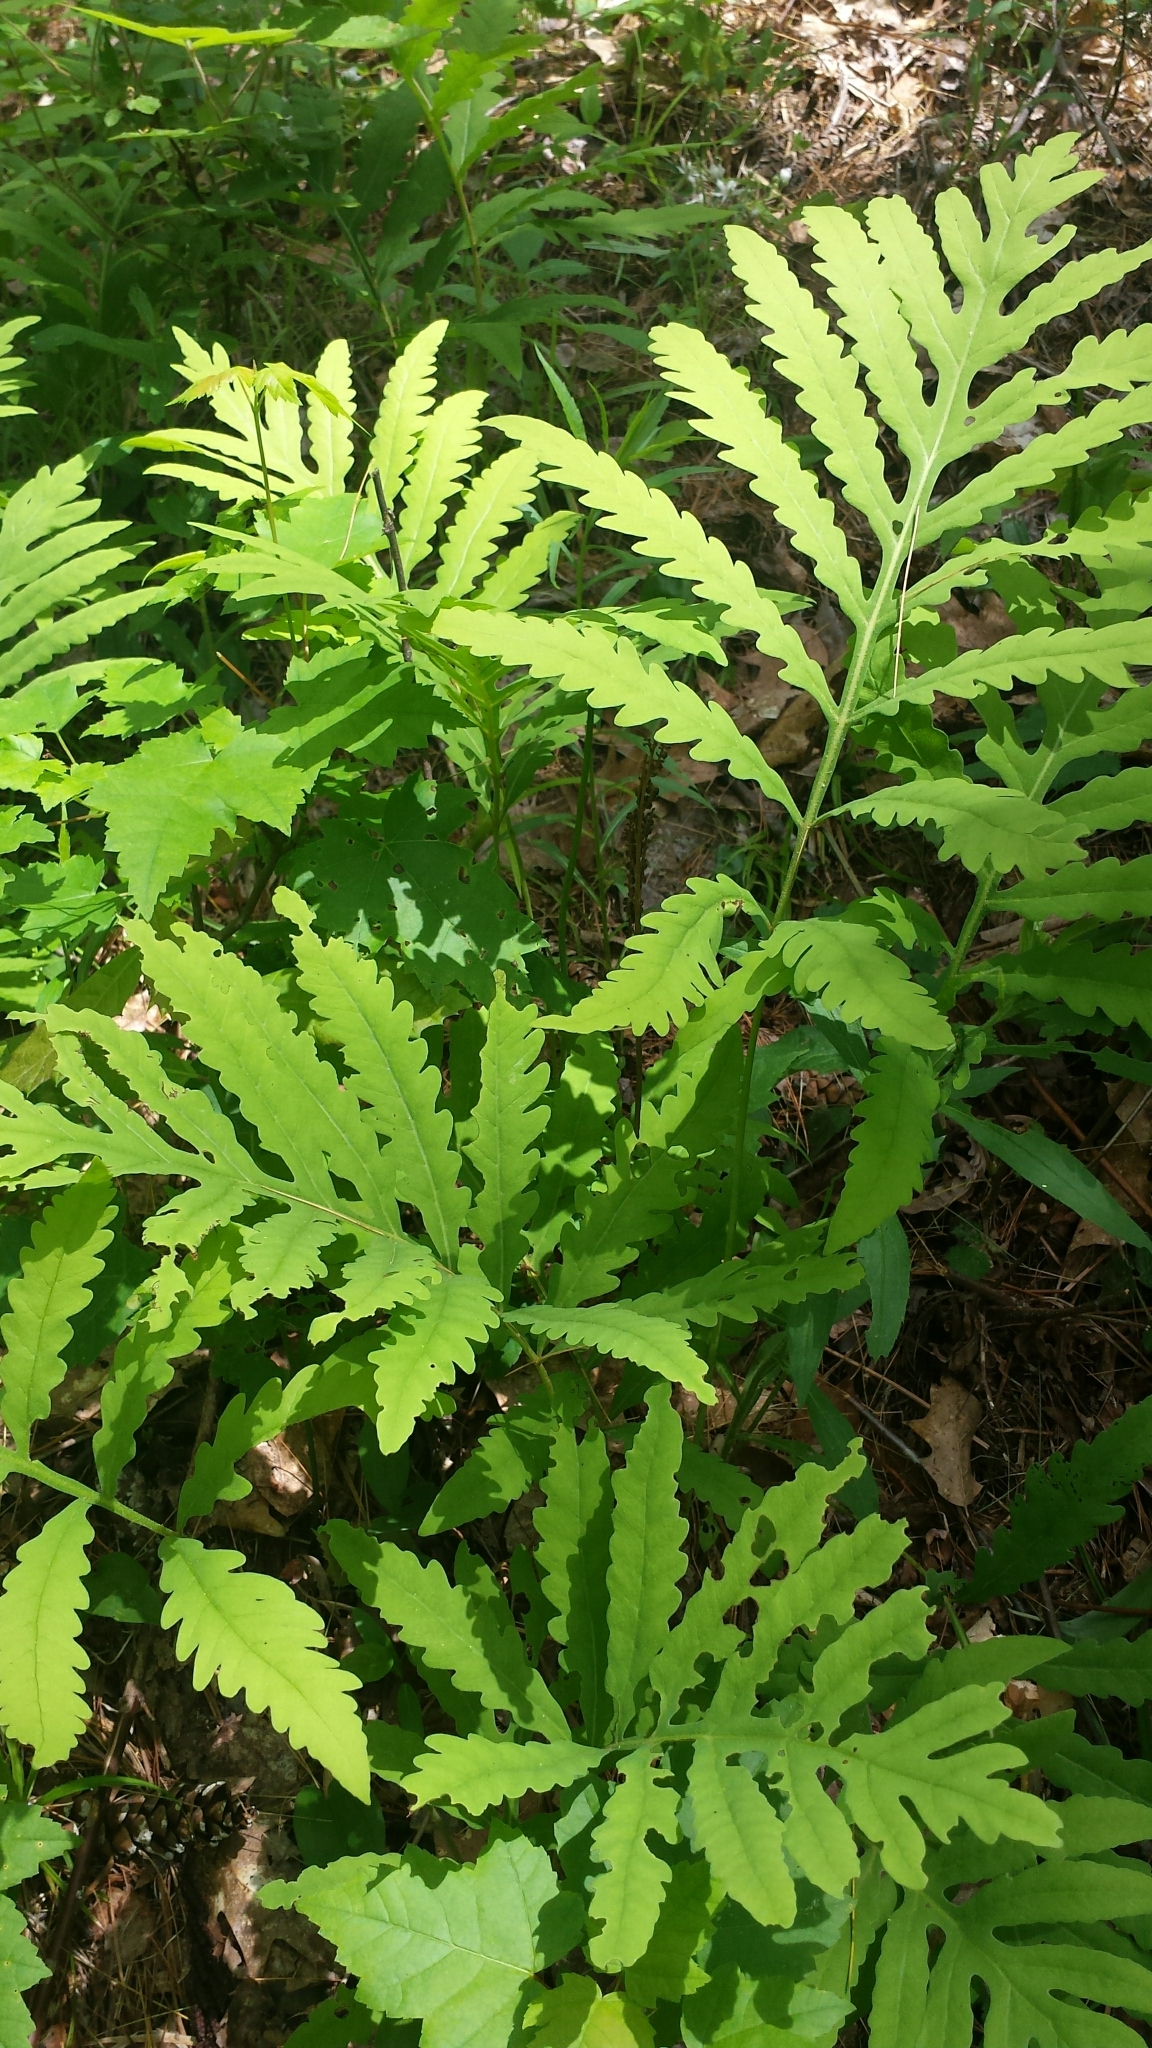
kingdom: Plantae
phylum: Tracheophyta
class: Polypodiopsida
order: Polypodiales
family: Onocleaceae
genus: Onoclea
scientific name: Onoclea sensibilis
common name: Sensitive fern
